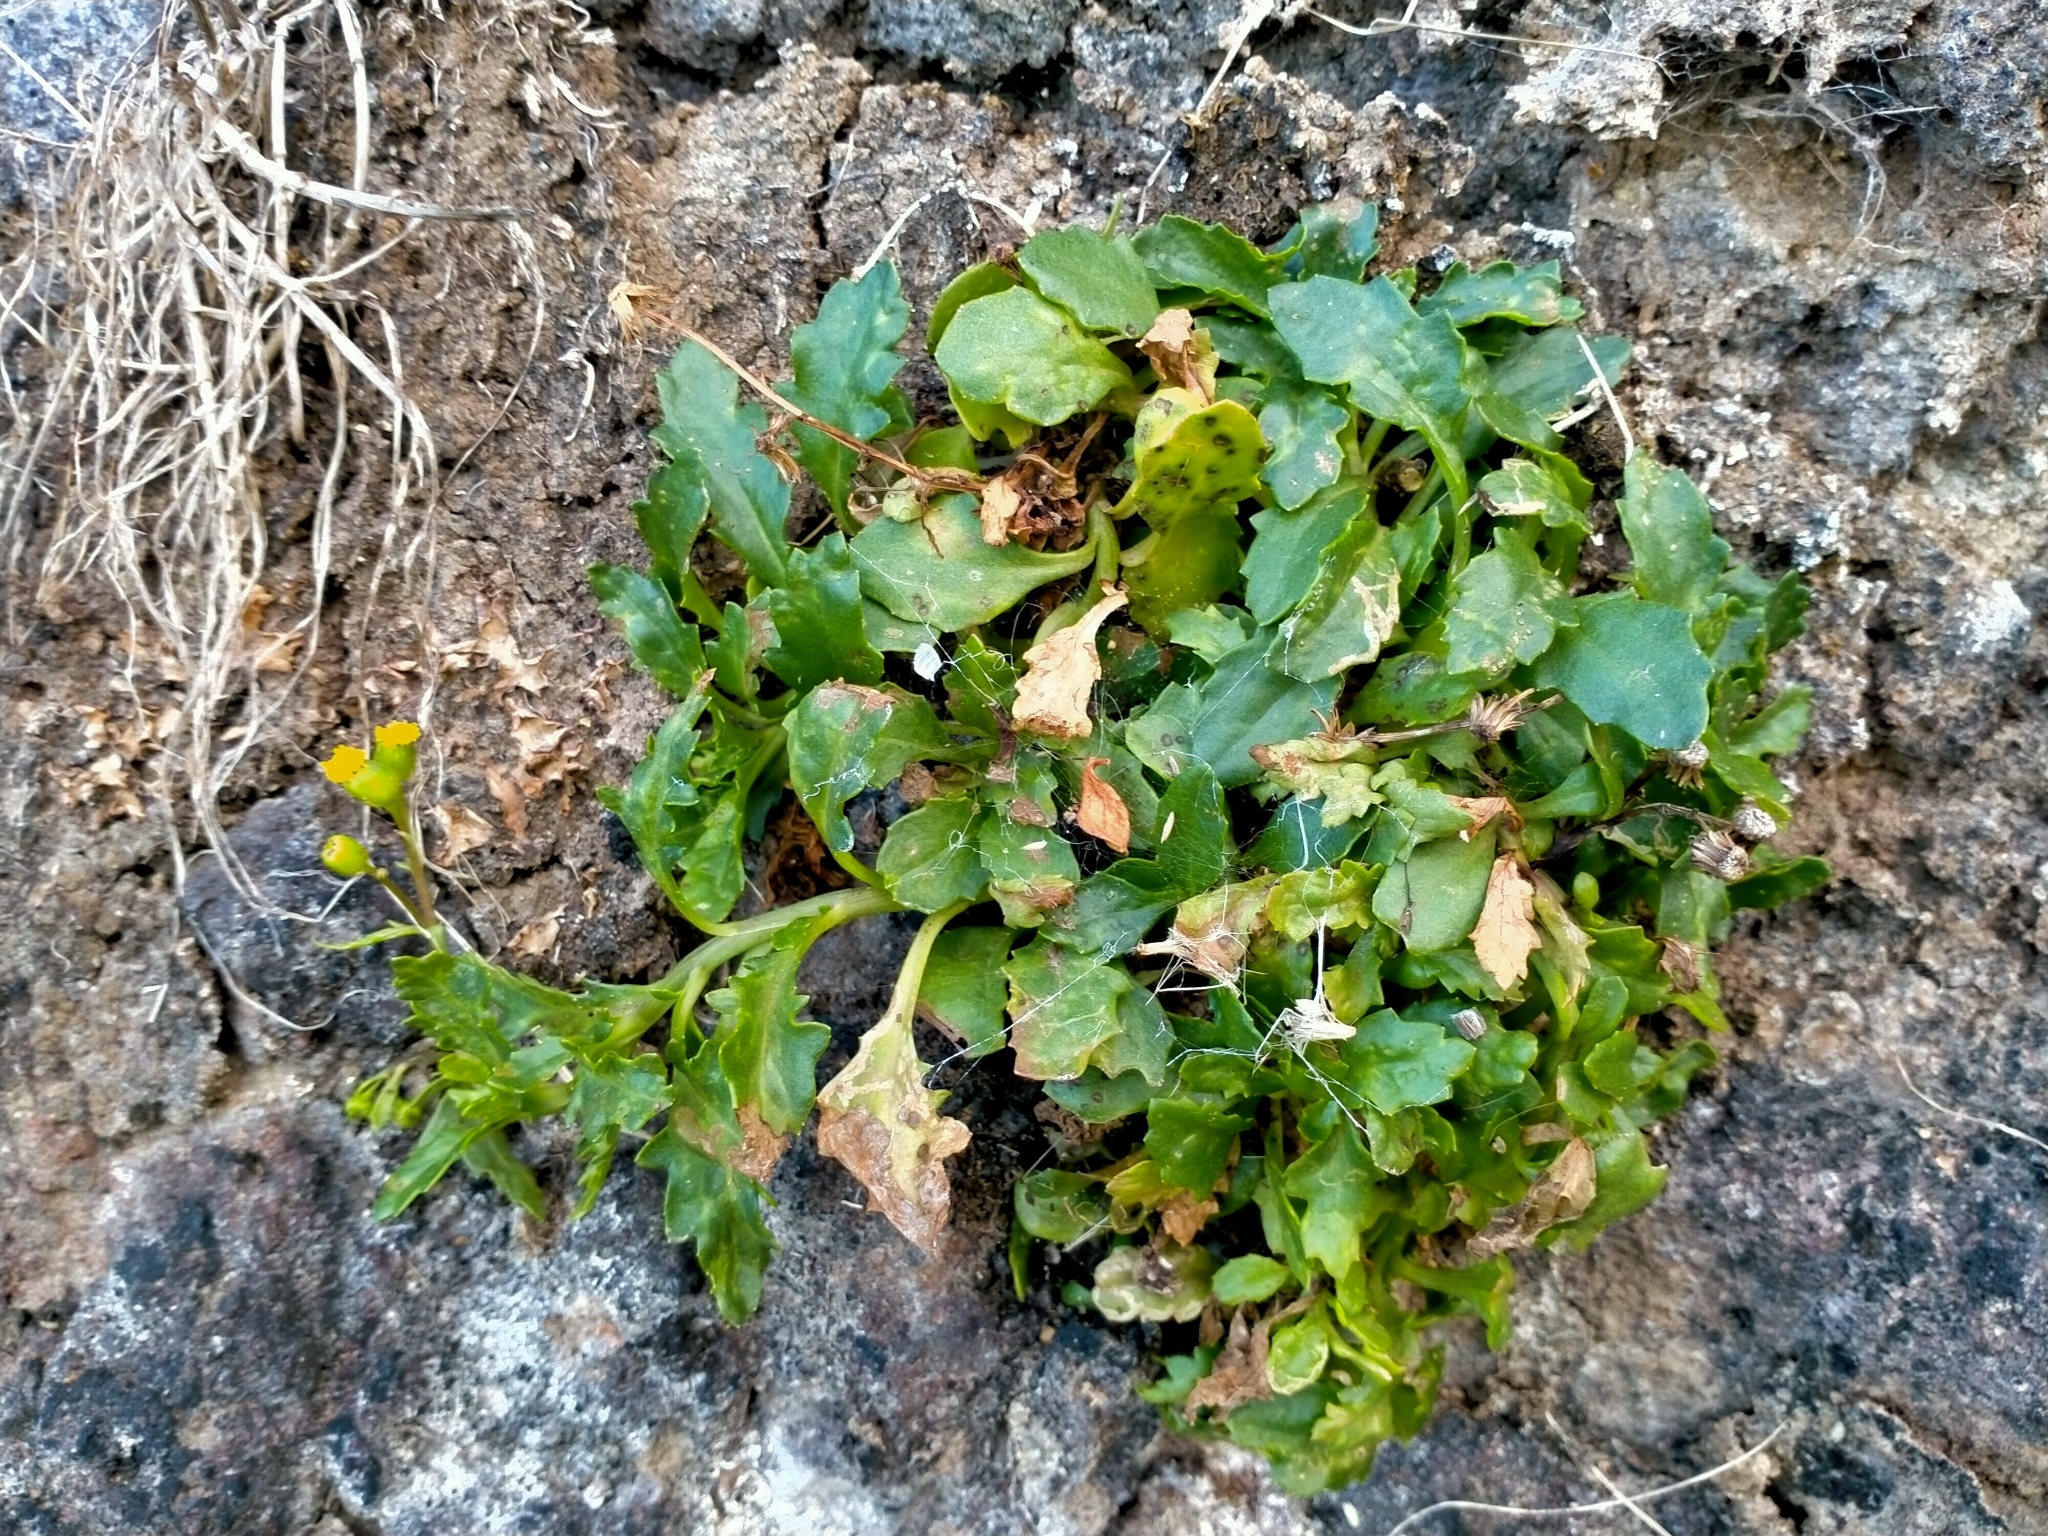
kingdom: Plantae
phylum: Tracheophyta
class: Magnoliopsida
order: Asterales
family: Asteraceae
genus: Senecio
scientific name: Senecio matatini
